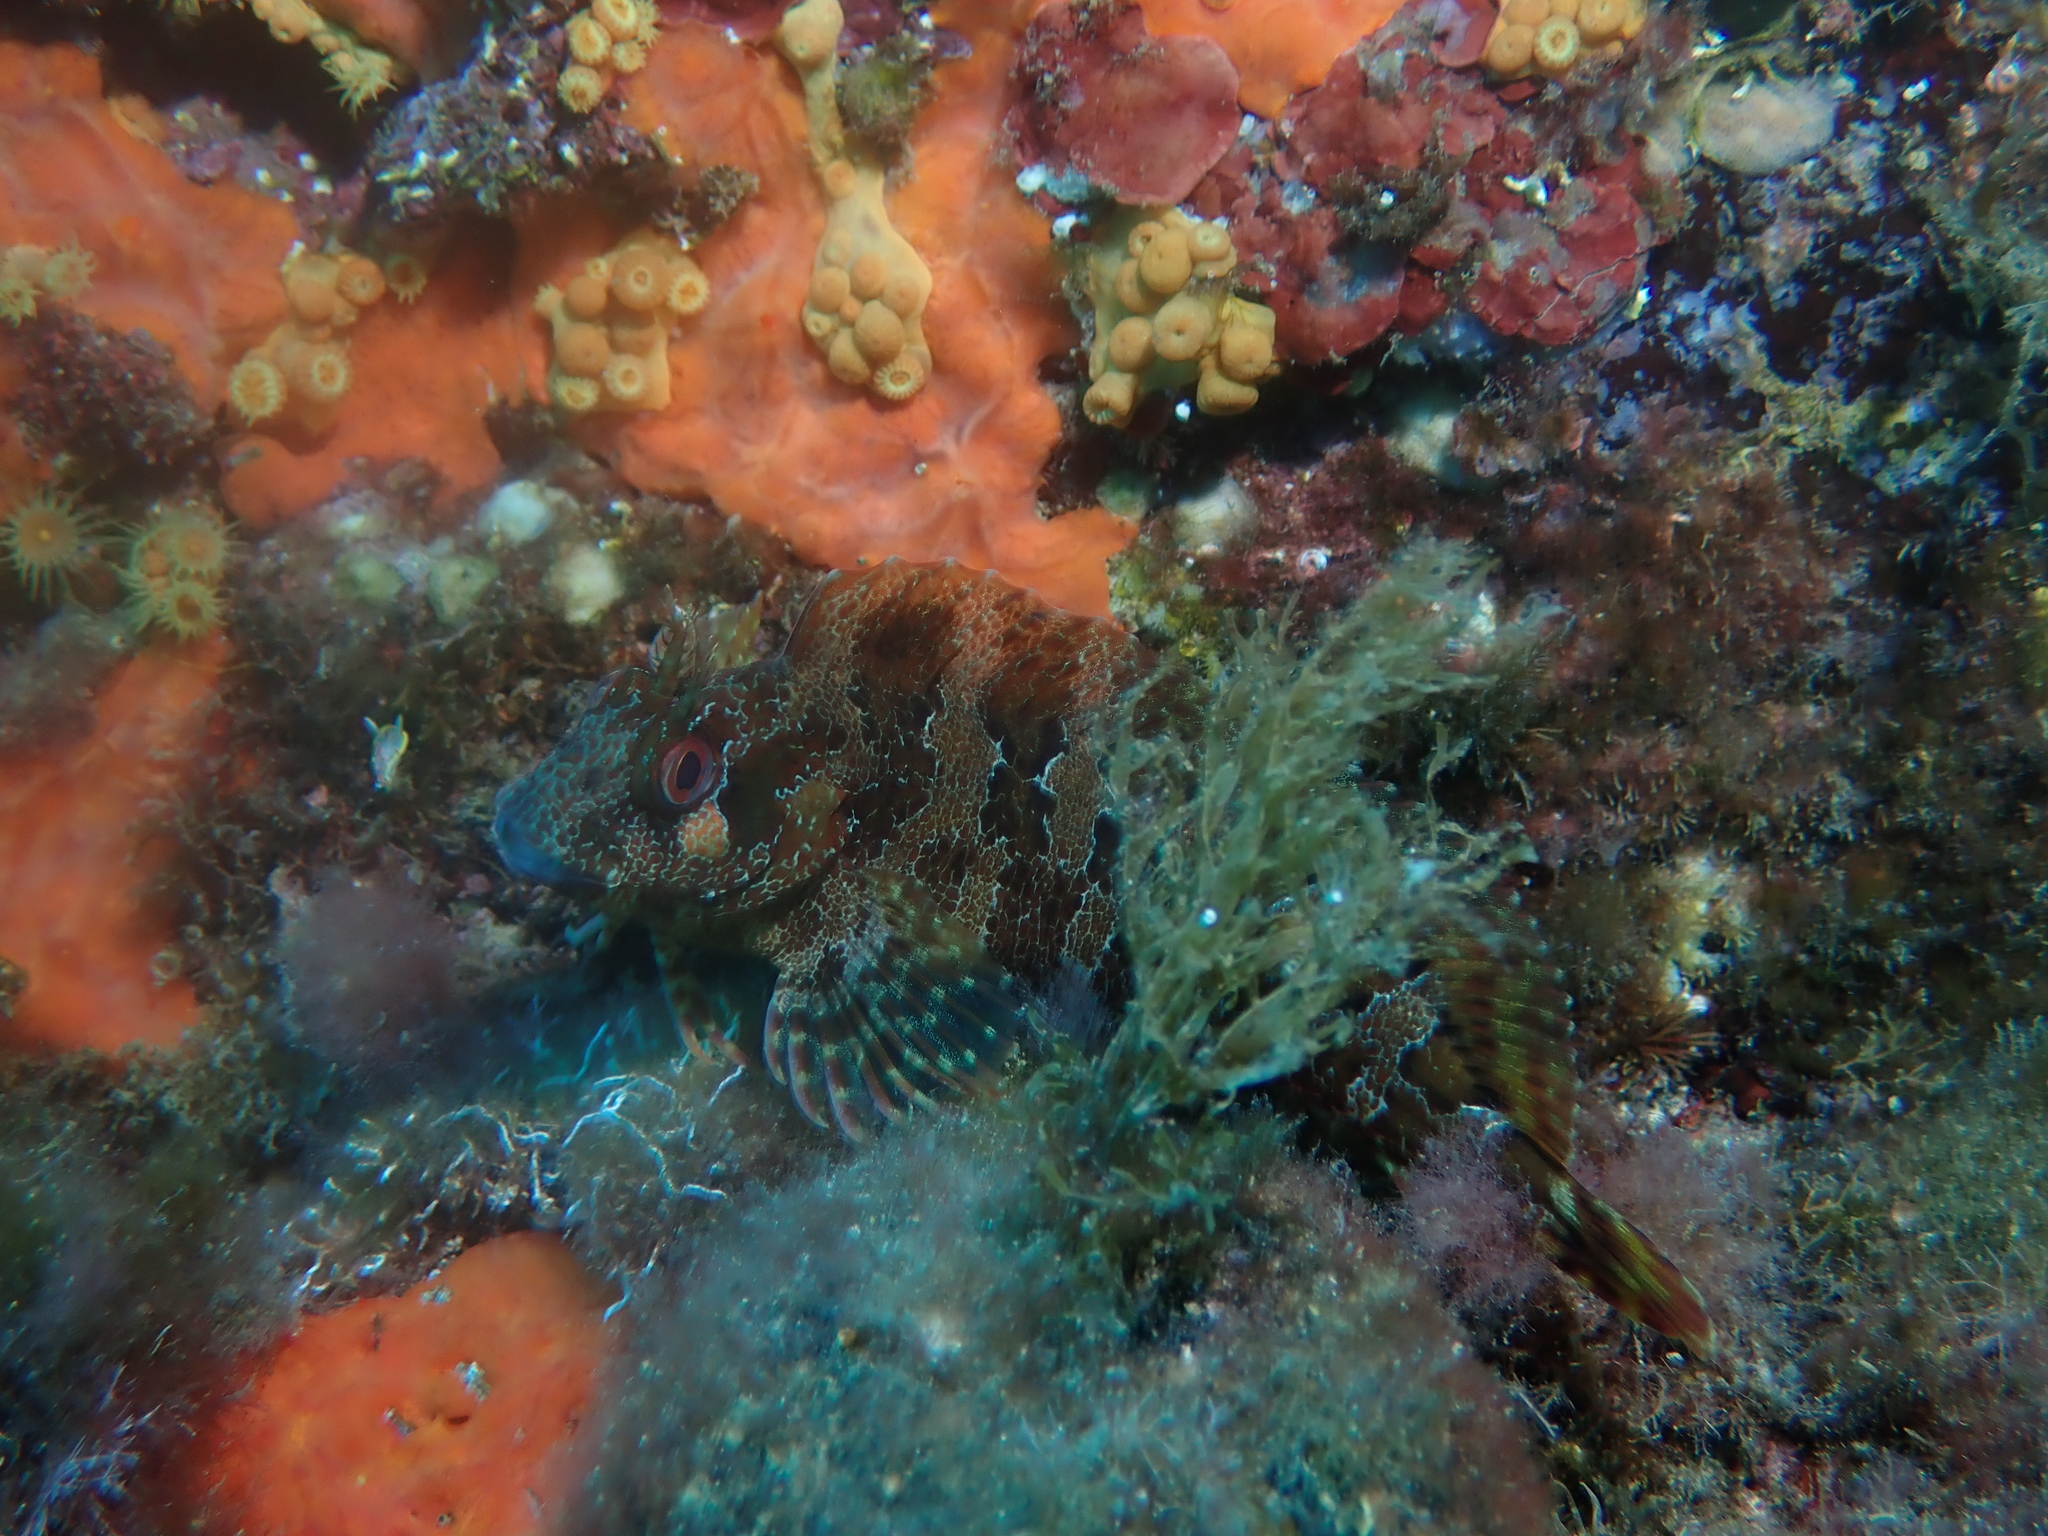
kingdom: Animalia
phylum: Chordata
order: Perciformes
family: Blenniidae
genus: Parablennius
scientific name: Parablennius gattorugine
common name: Tompot blenny
